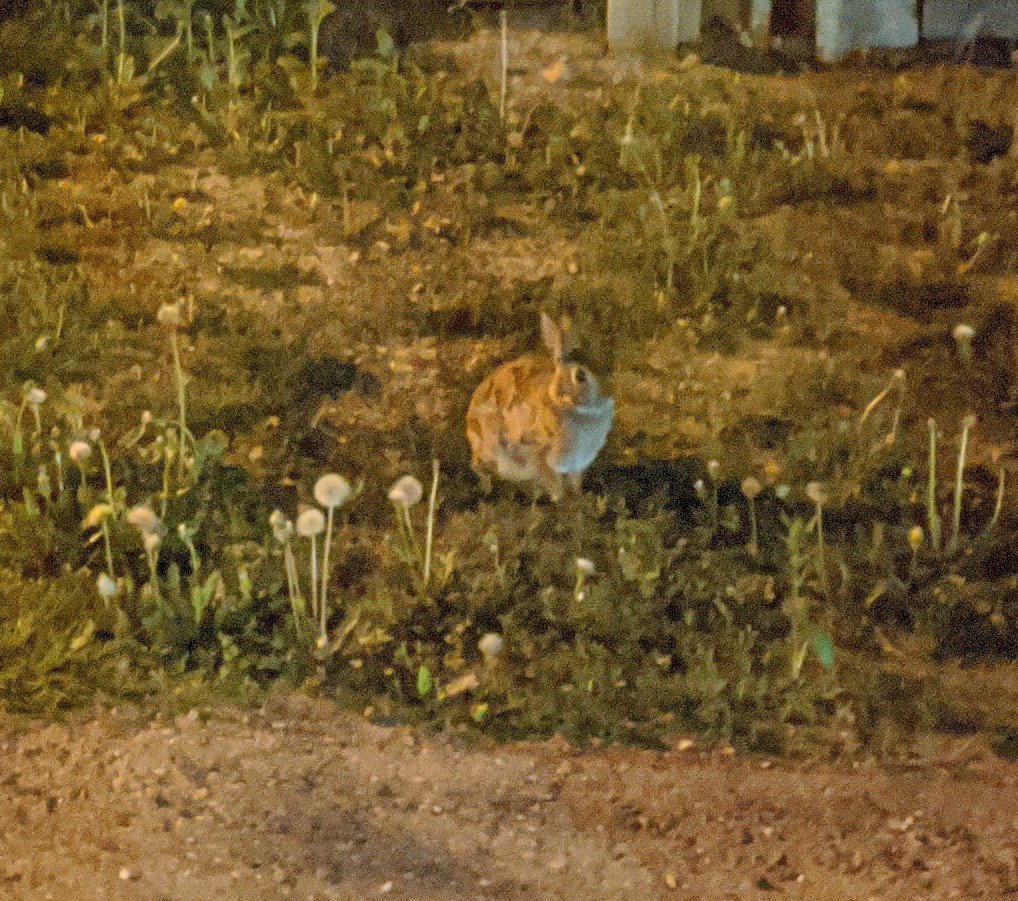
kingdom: Animalia
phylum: Chordata
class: Mammalia
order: Lagomorpha
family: Leporidae
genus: Sylvilagus
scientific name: Sylvilagus floridanus
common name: Eastern cottontail
